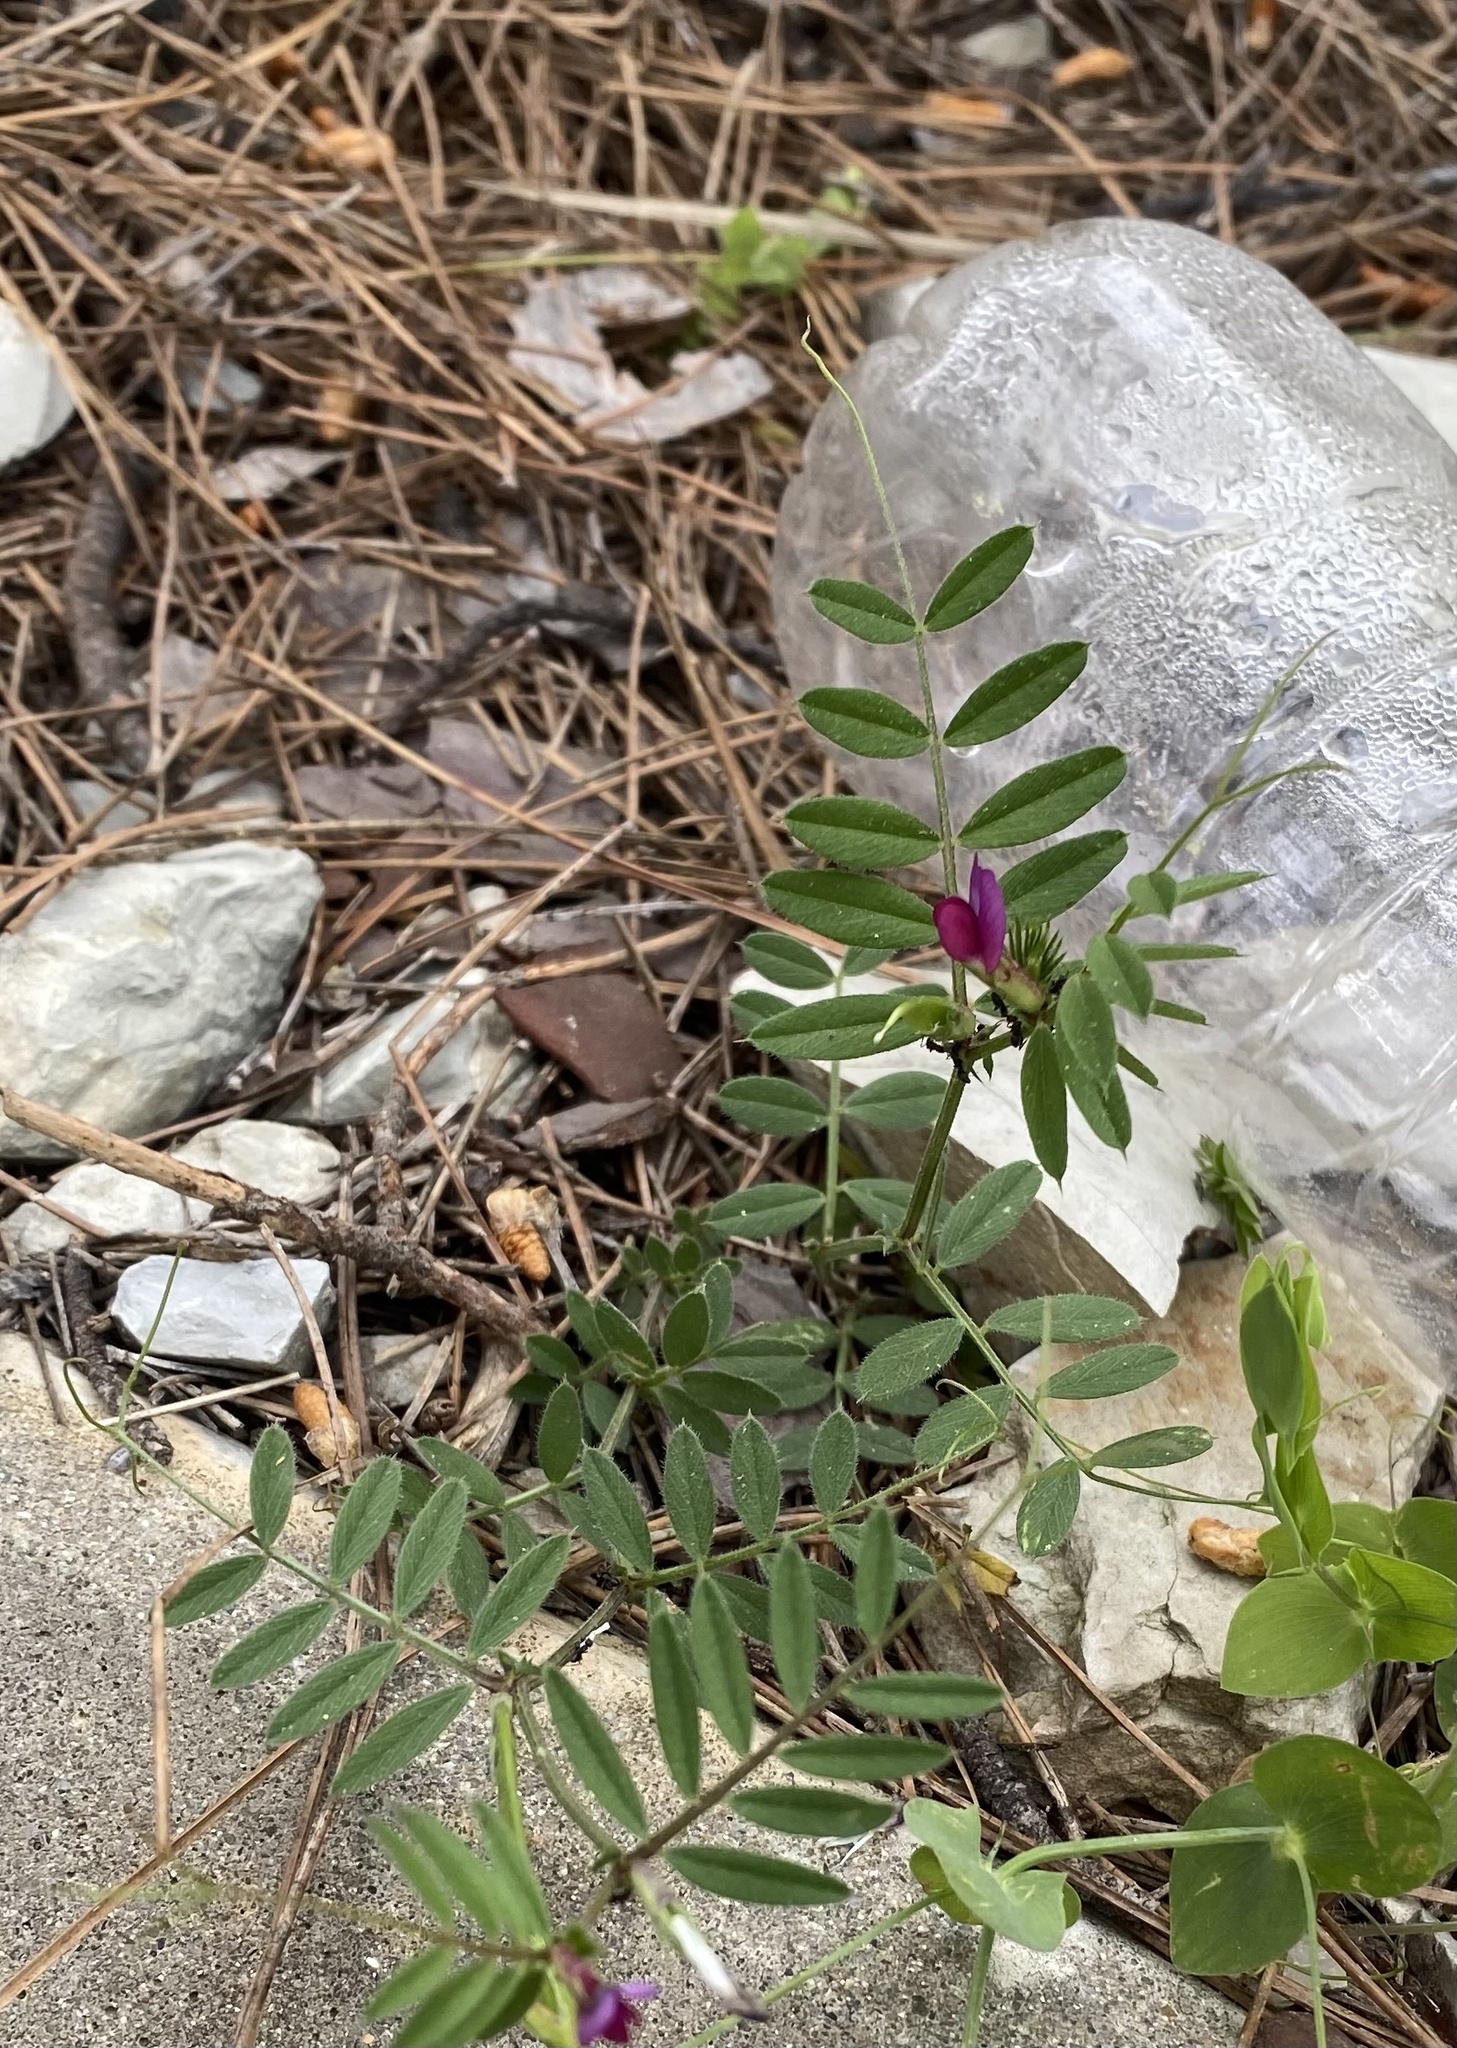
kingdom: Plantae
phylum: Tracheophyta
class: Magnoliopsida
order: Fabales
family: Fabaceae
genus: Vicia
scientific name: Vicia sativa
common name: Garden vetch
